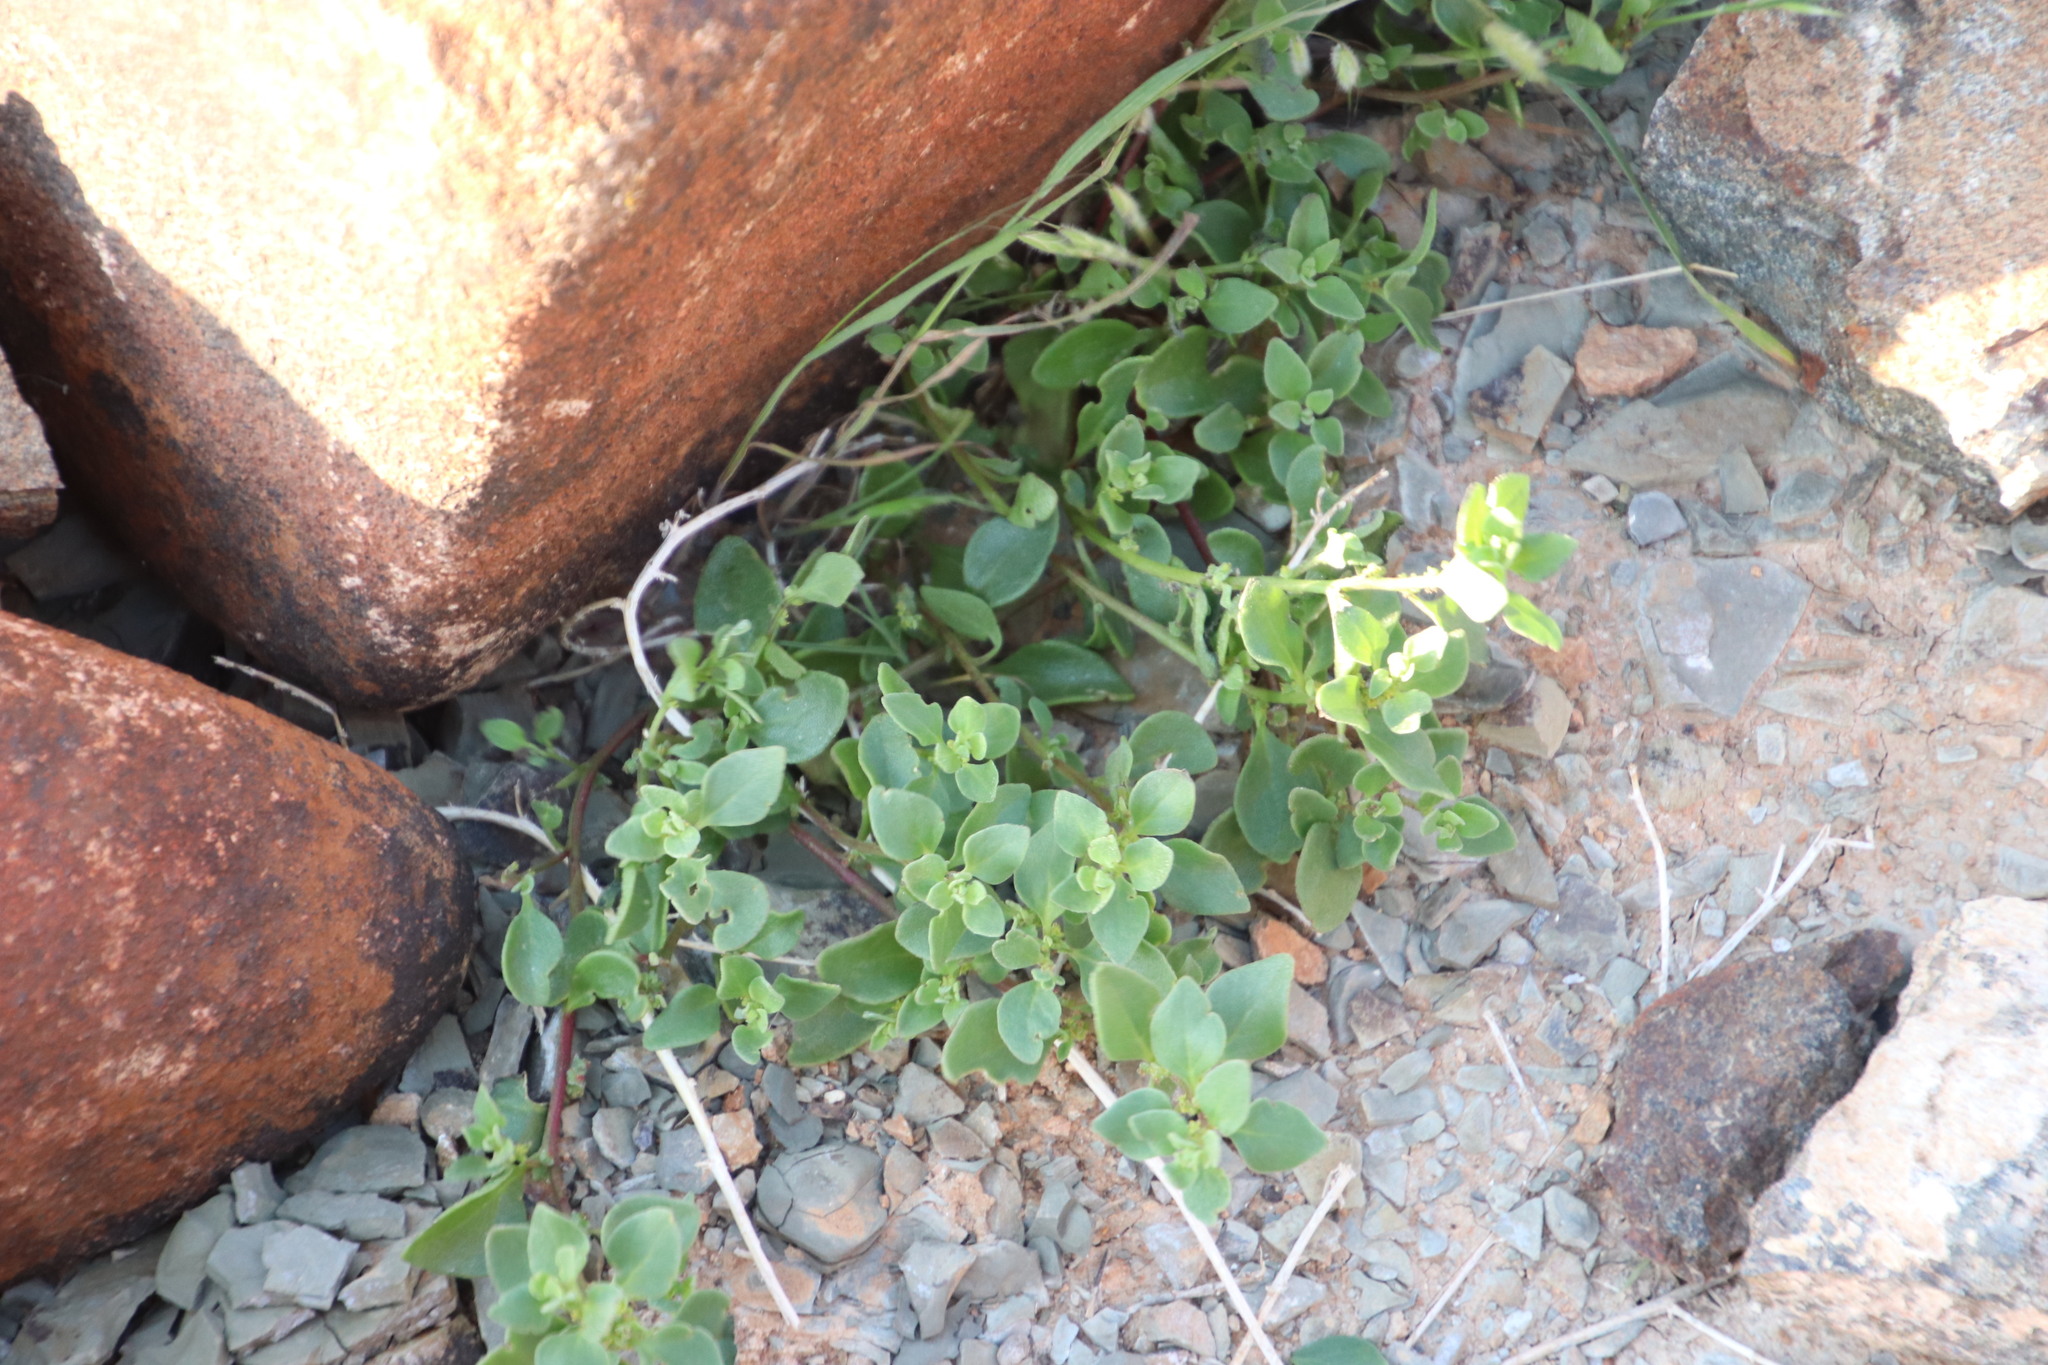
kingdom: Plantae
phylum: Tracheophyta
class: Magnoliopsida
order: Caryophyllales
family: Aizoaceae
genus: Tetragonia
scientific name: Tetragonia microptera
